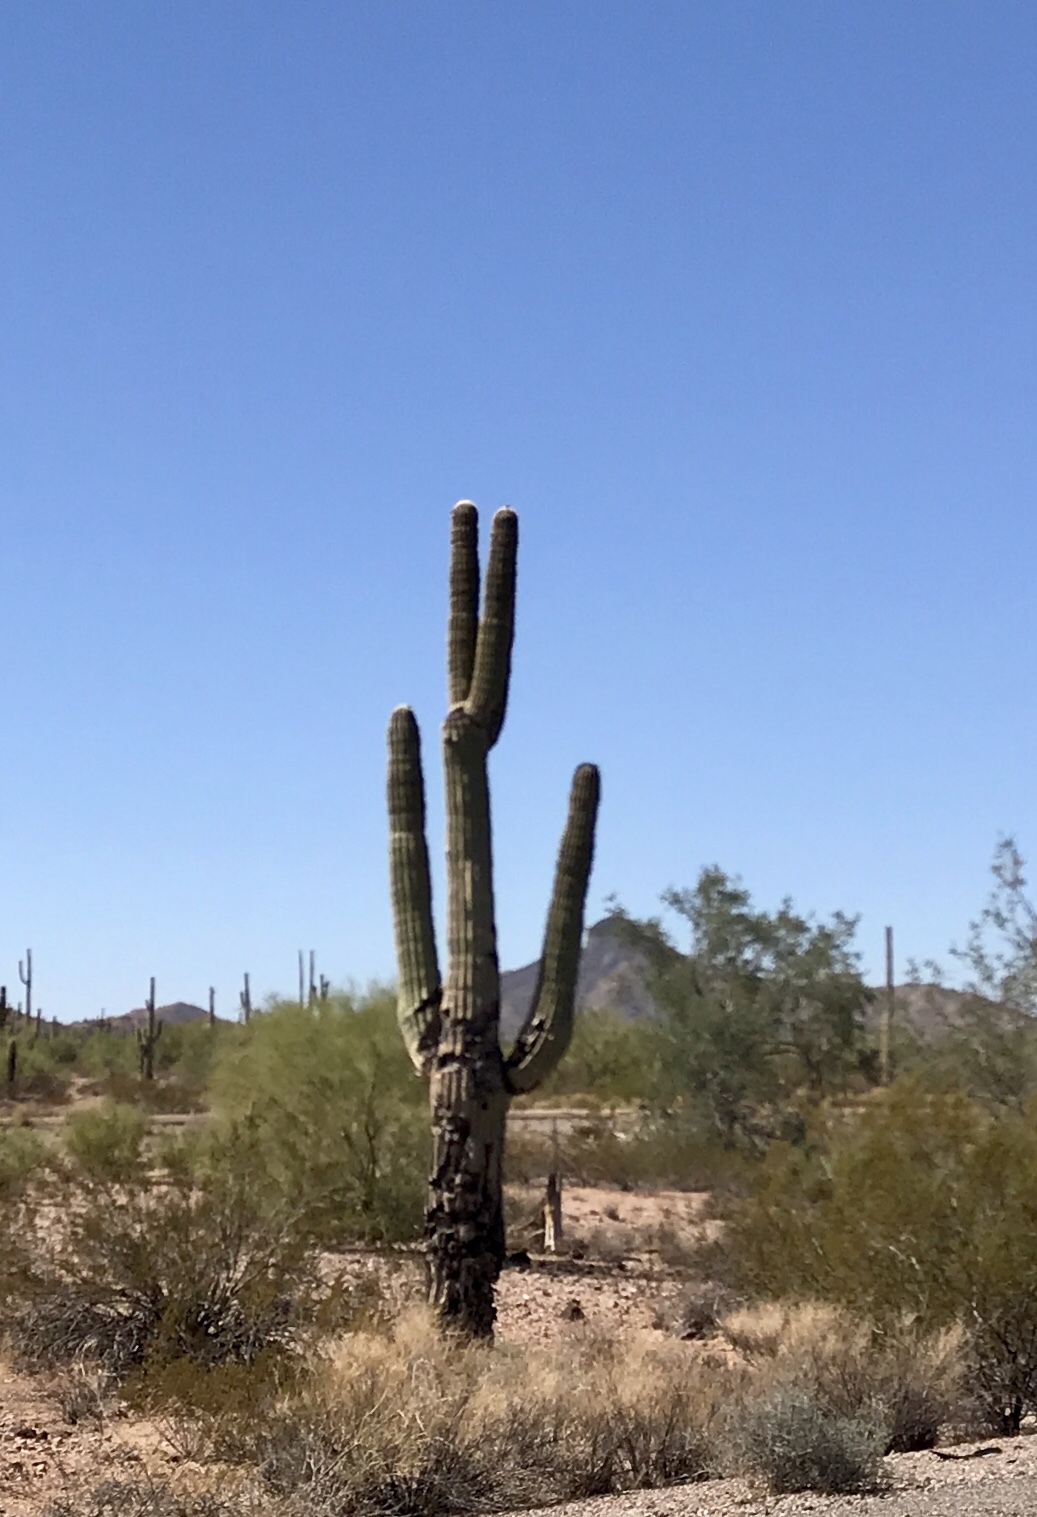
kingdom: Plantae
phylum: Tracheophyta
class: Magnoliopsida
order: Caryophyllales
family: Cactaceae
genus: Carnegiea
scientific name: Carnegiea gigantea
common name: Saguaro
